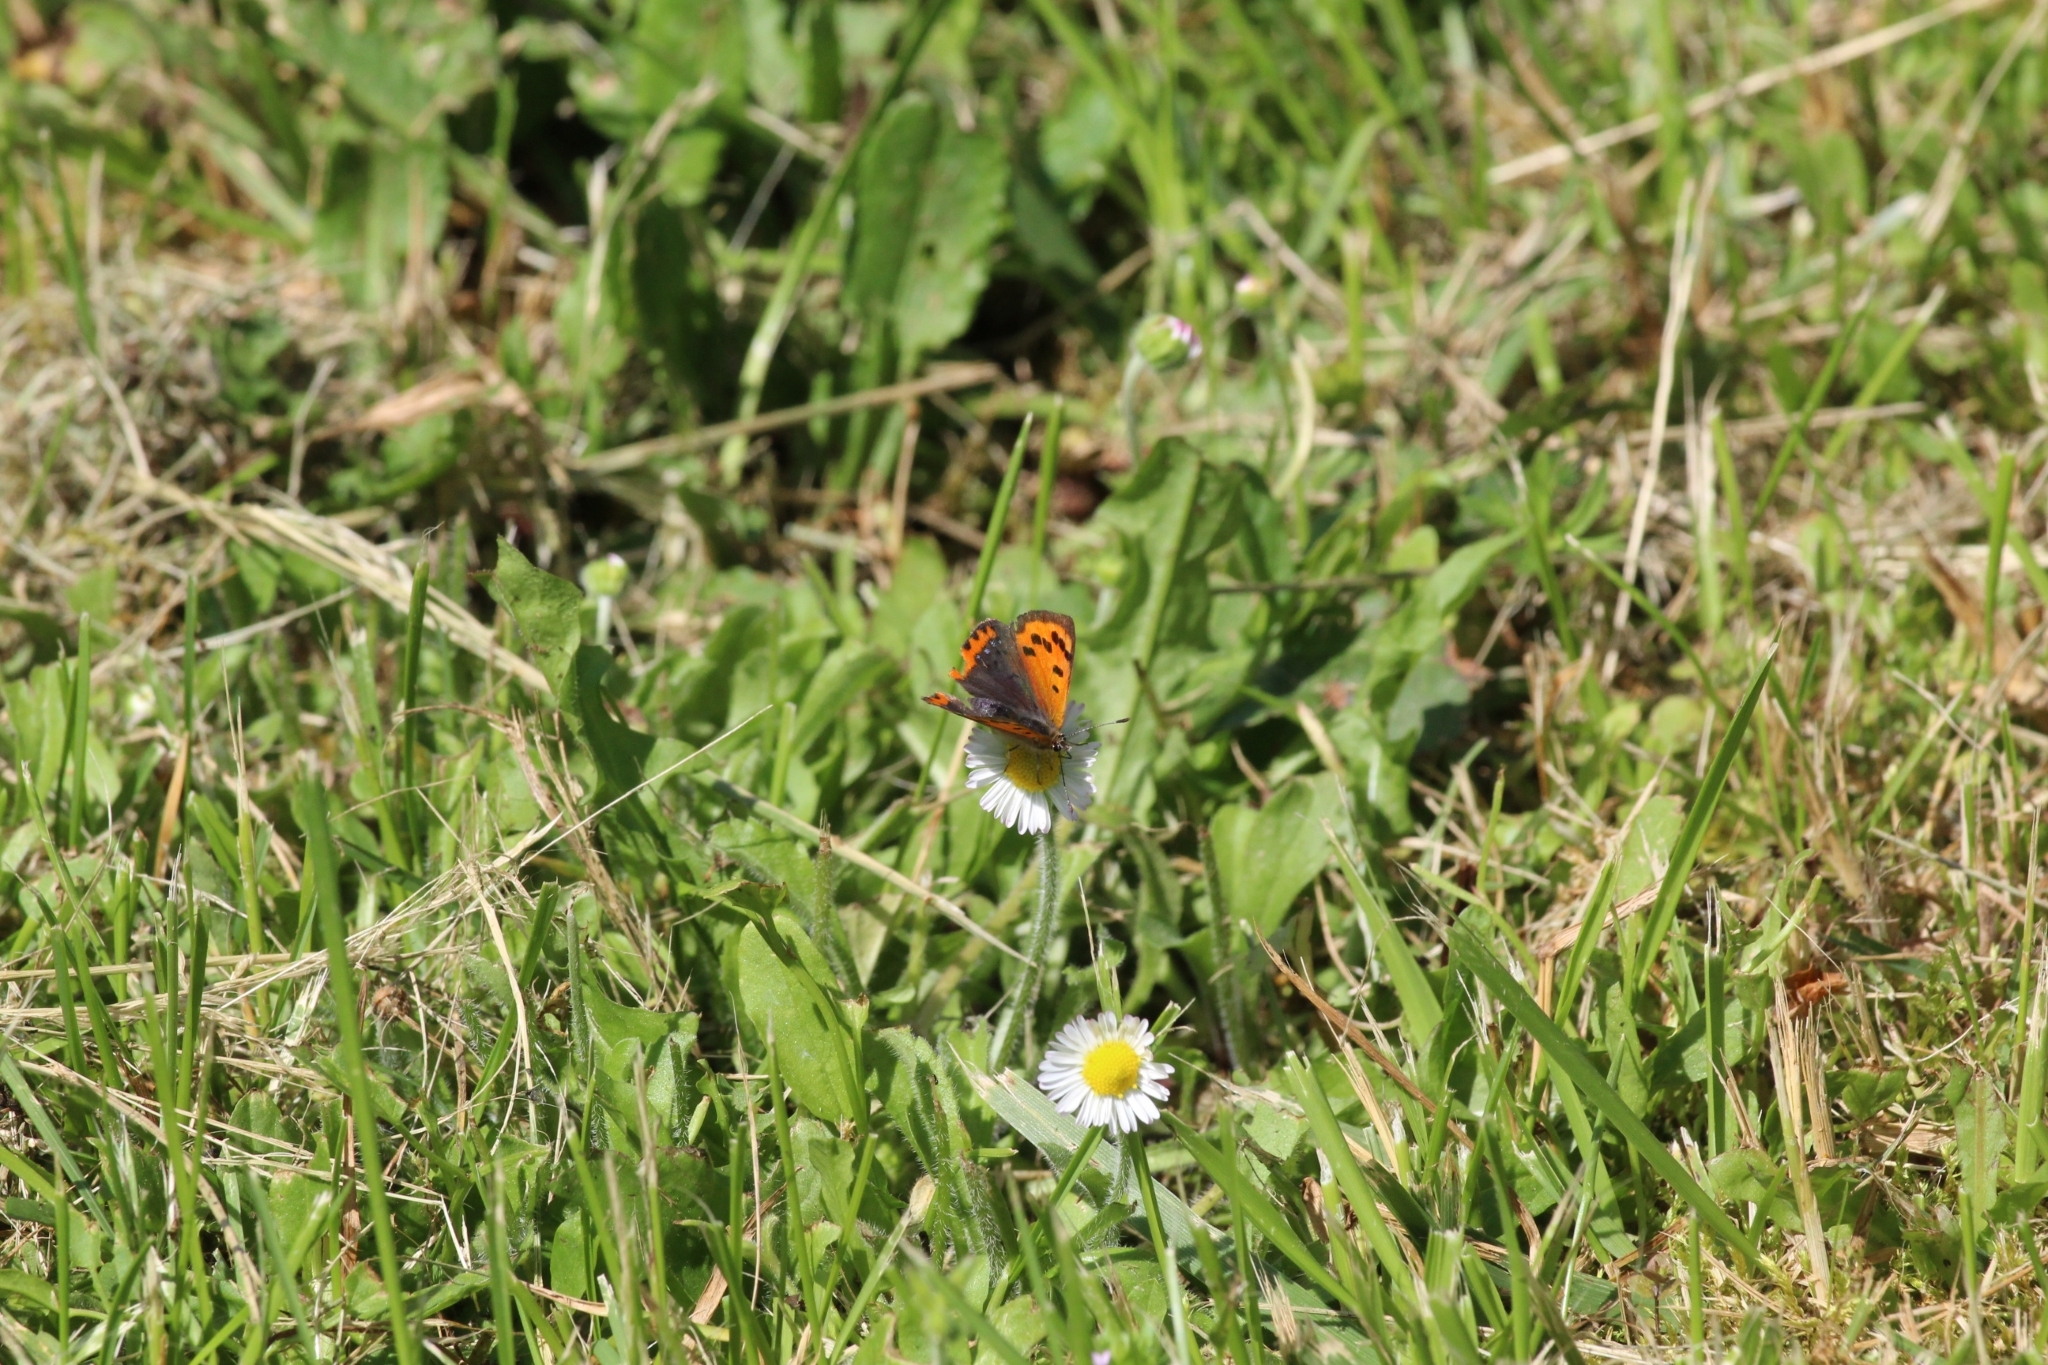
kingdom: Animalia
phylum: Arthropoda
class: Insecta
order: Lepidoptera
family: Lycaenidae
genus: Lycaena
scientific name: Lycaena phlaeas
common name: Small copper
